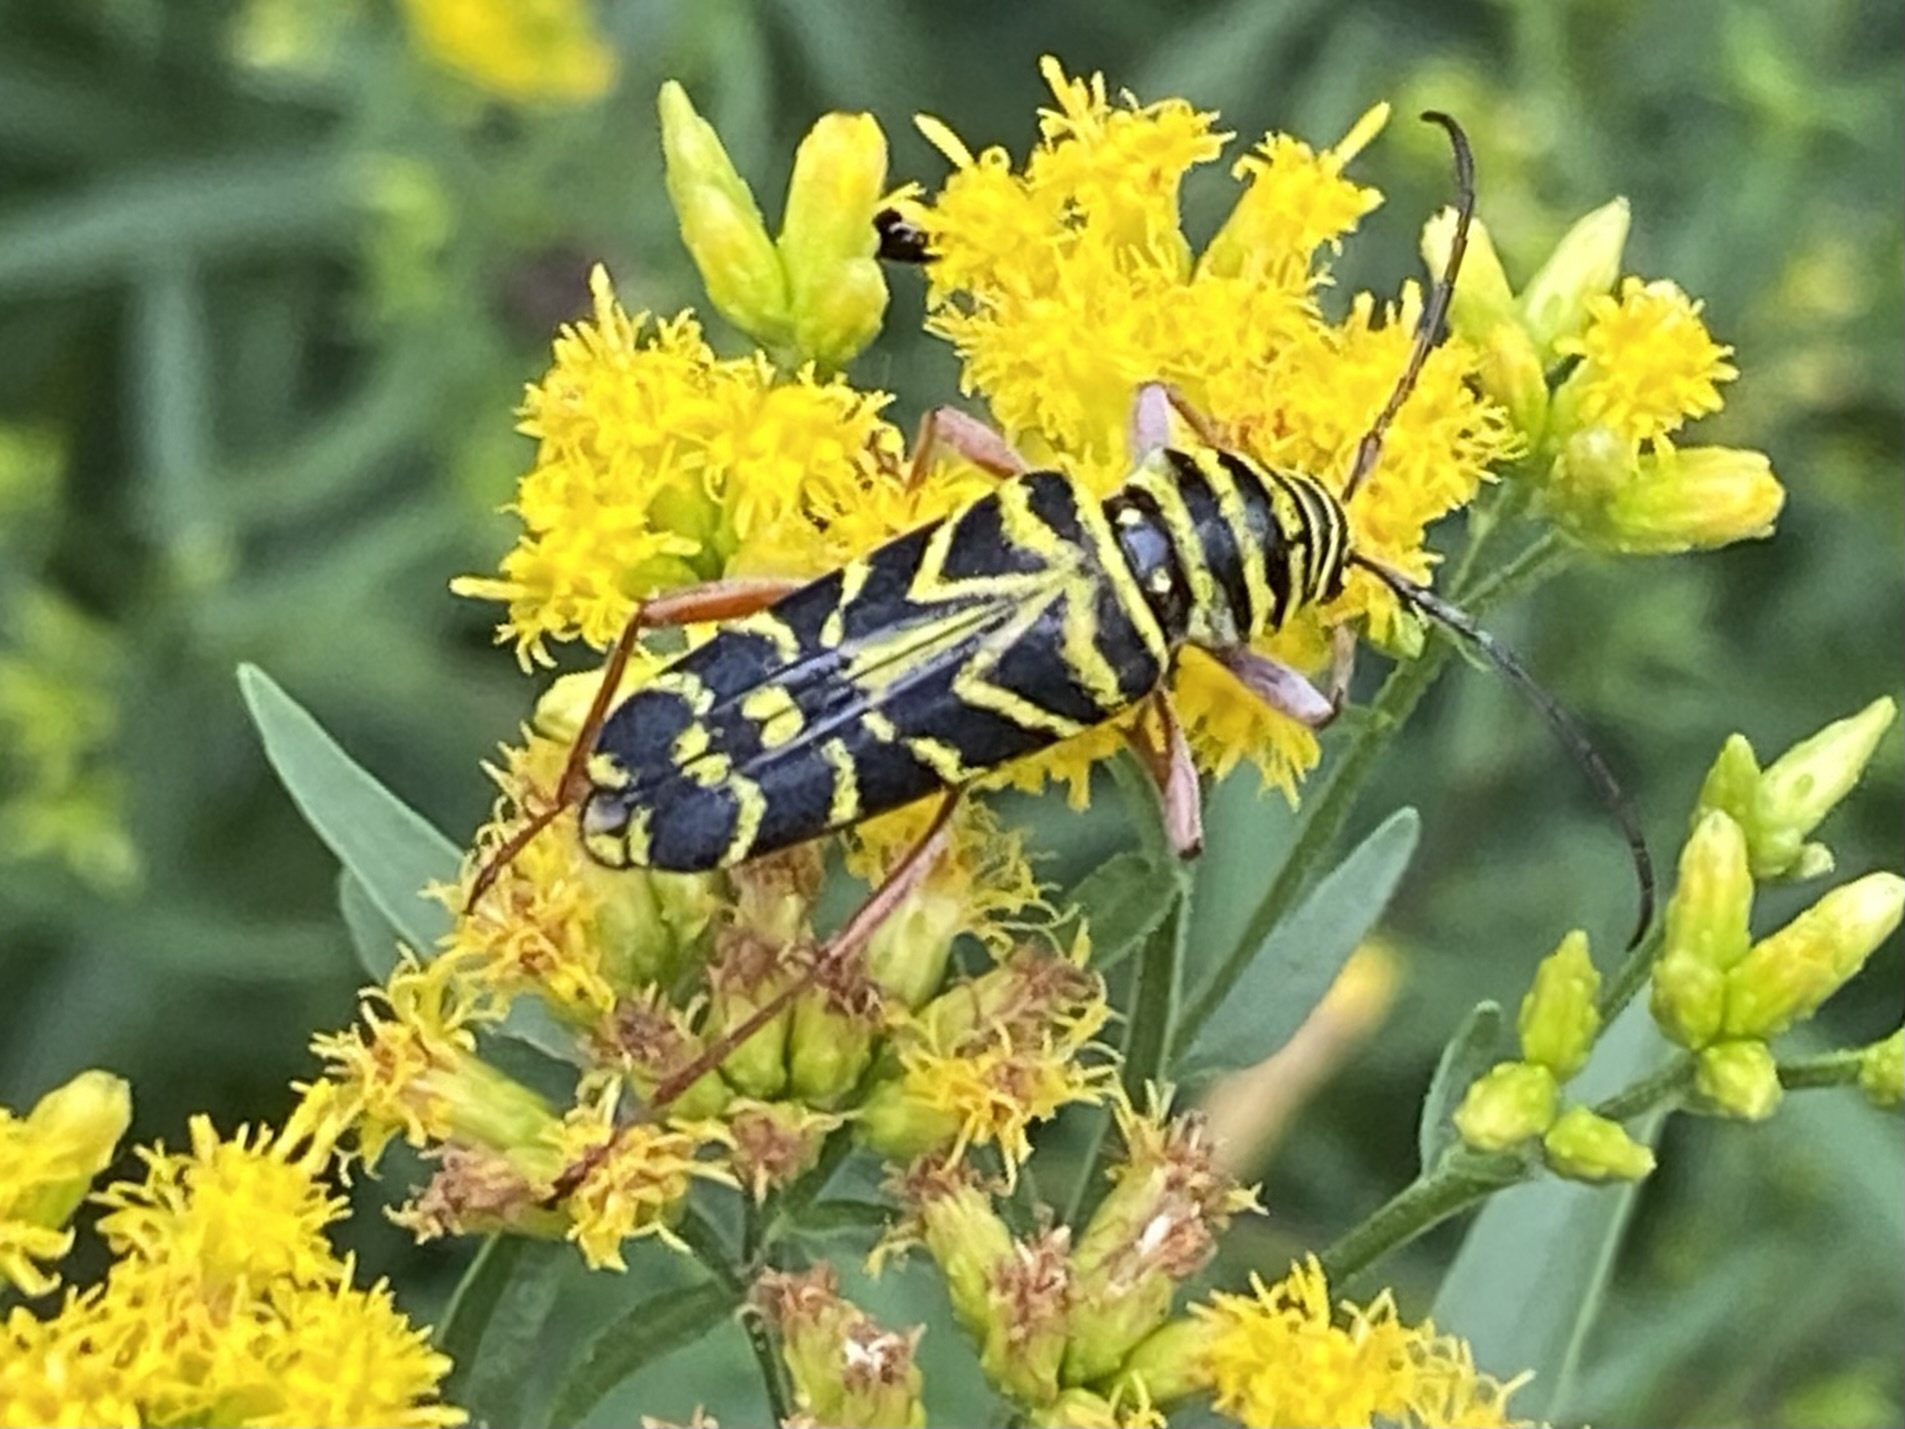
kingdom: Animalia
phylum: Arthropoda
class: Insecta
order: Coleoptera
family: Cerambycidae
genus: Megacyllene
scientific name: Megacyllene robiniae
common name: Locust borer
